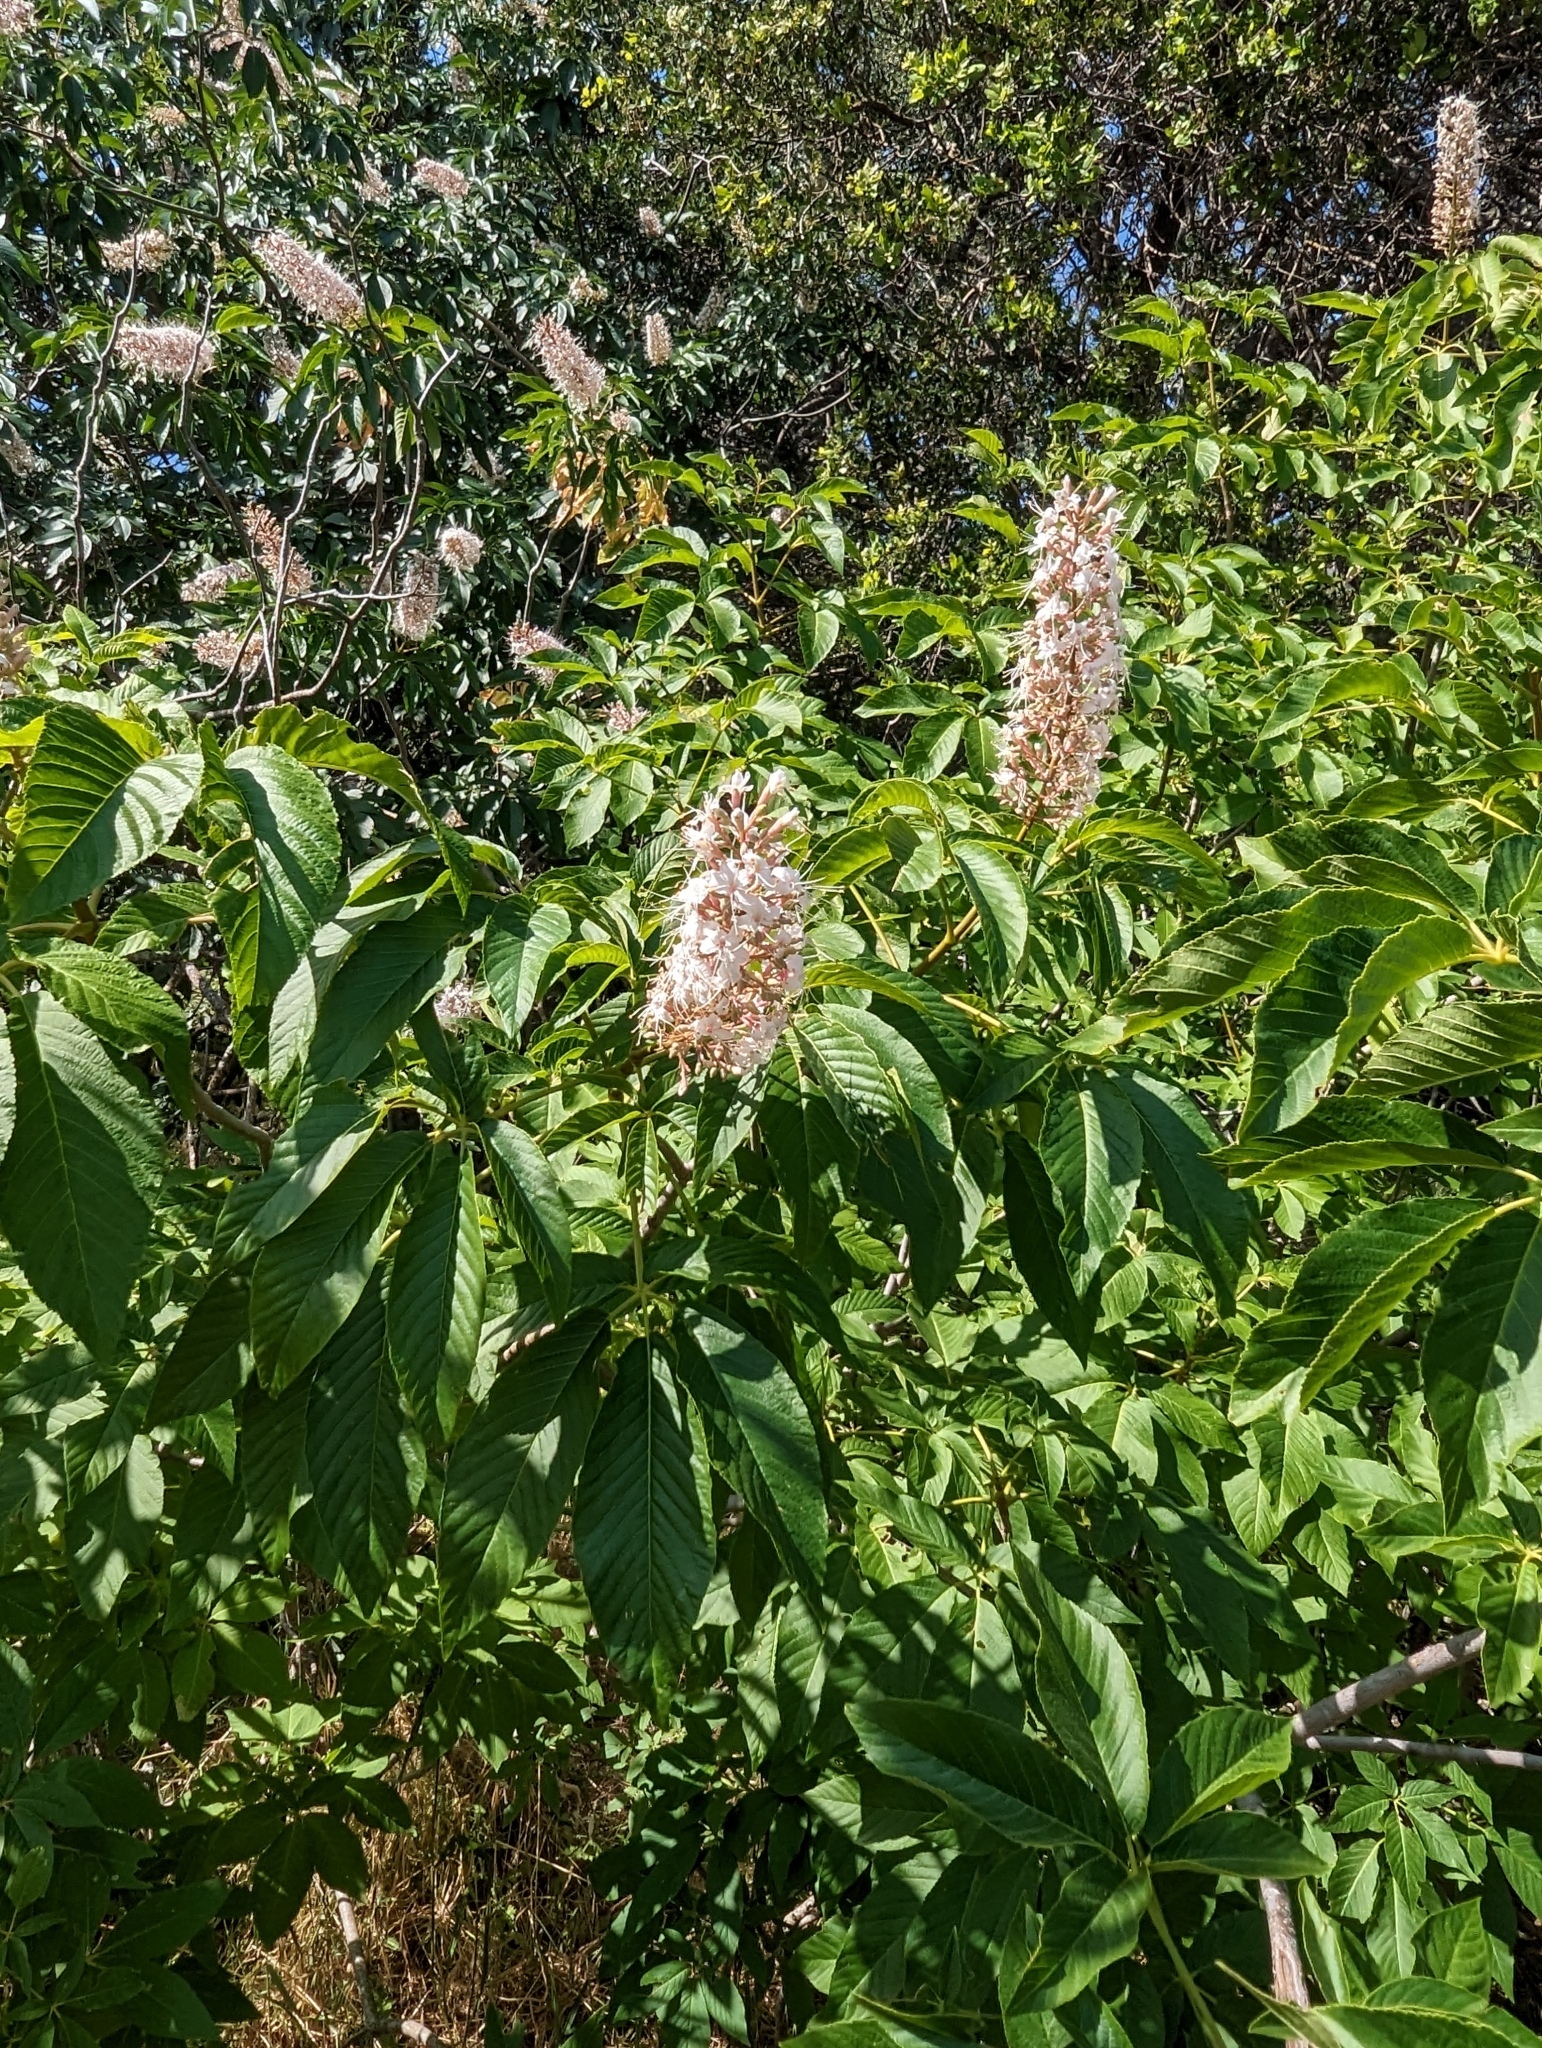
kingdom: Plantae
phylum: Tracheophyta
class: Magnoliopsida
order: Sapindales
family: Sapindaceae
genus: Aesculus
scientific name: Aesculus californica
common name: California buckeye
